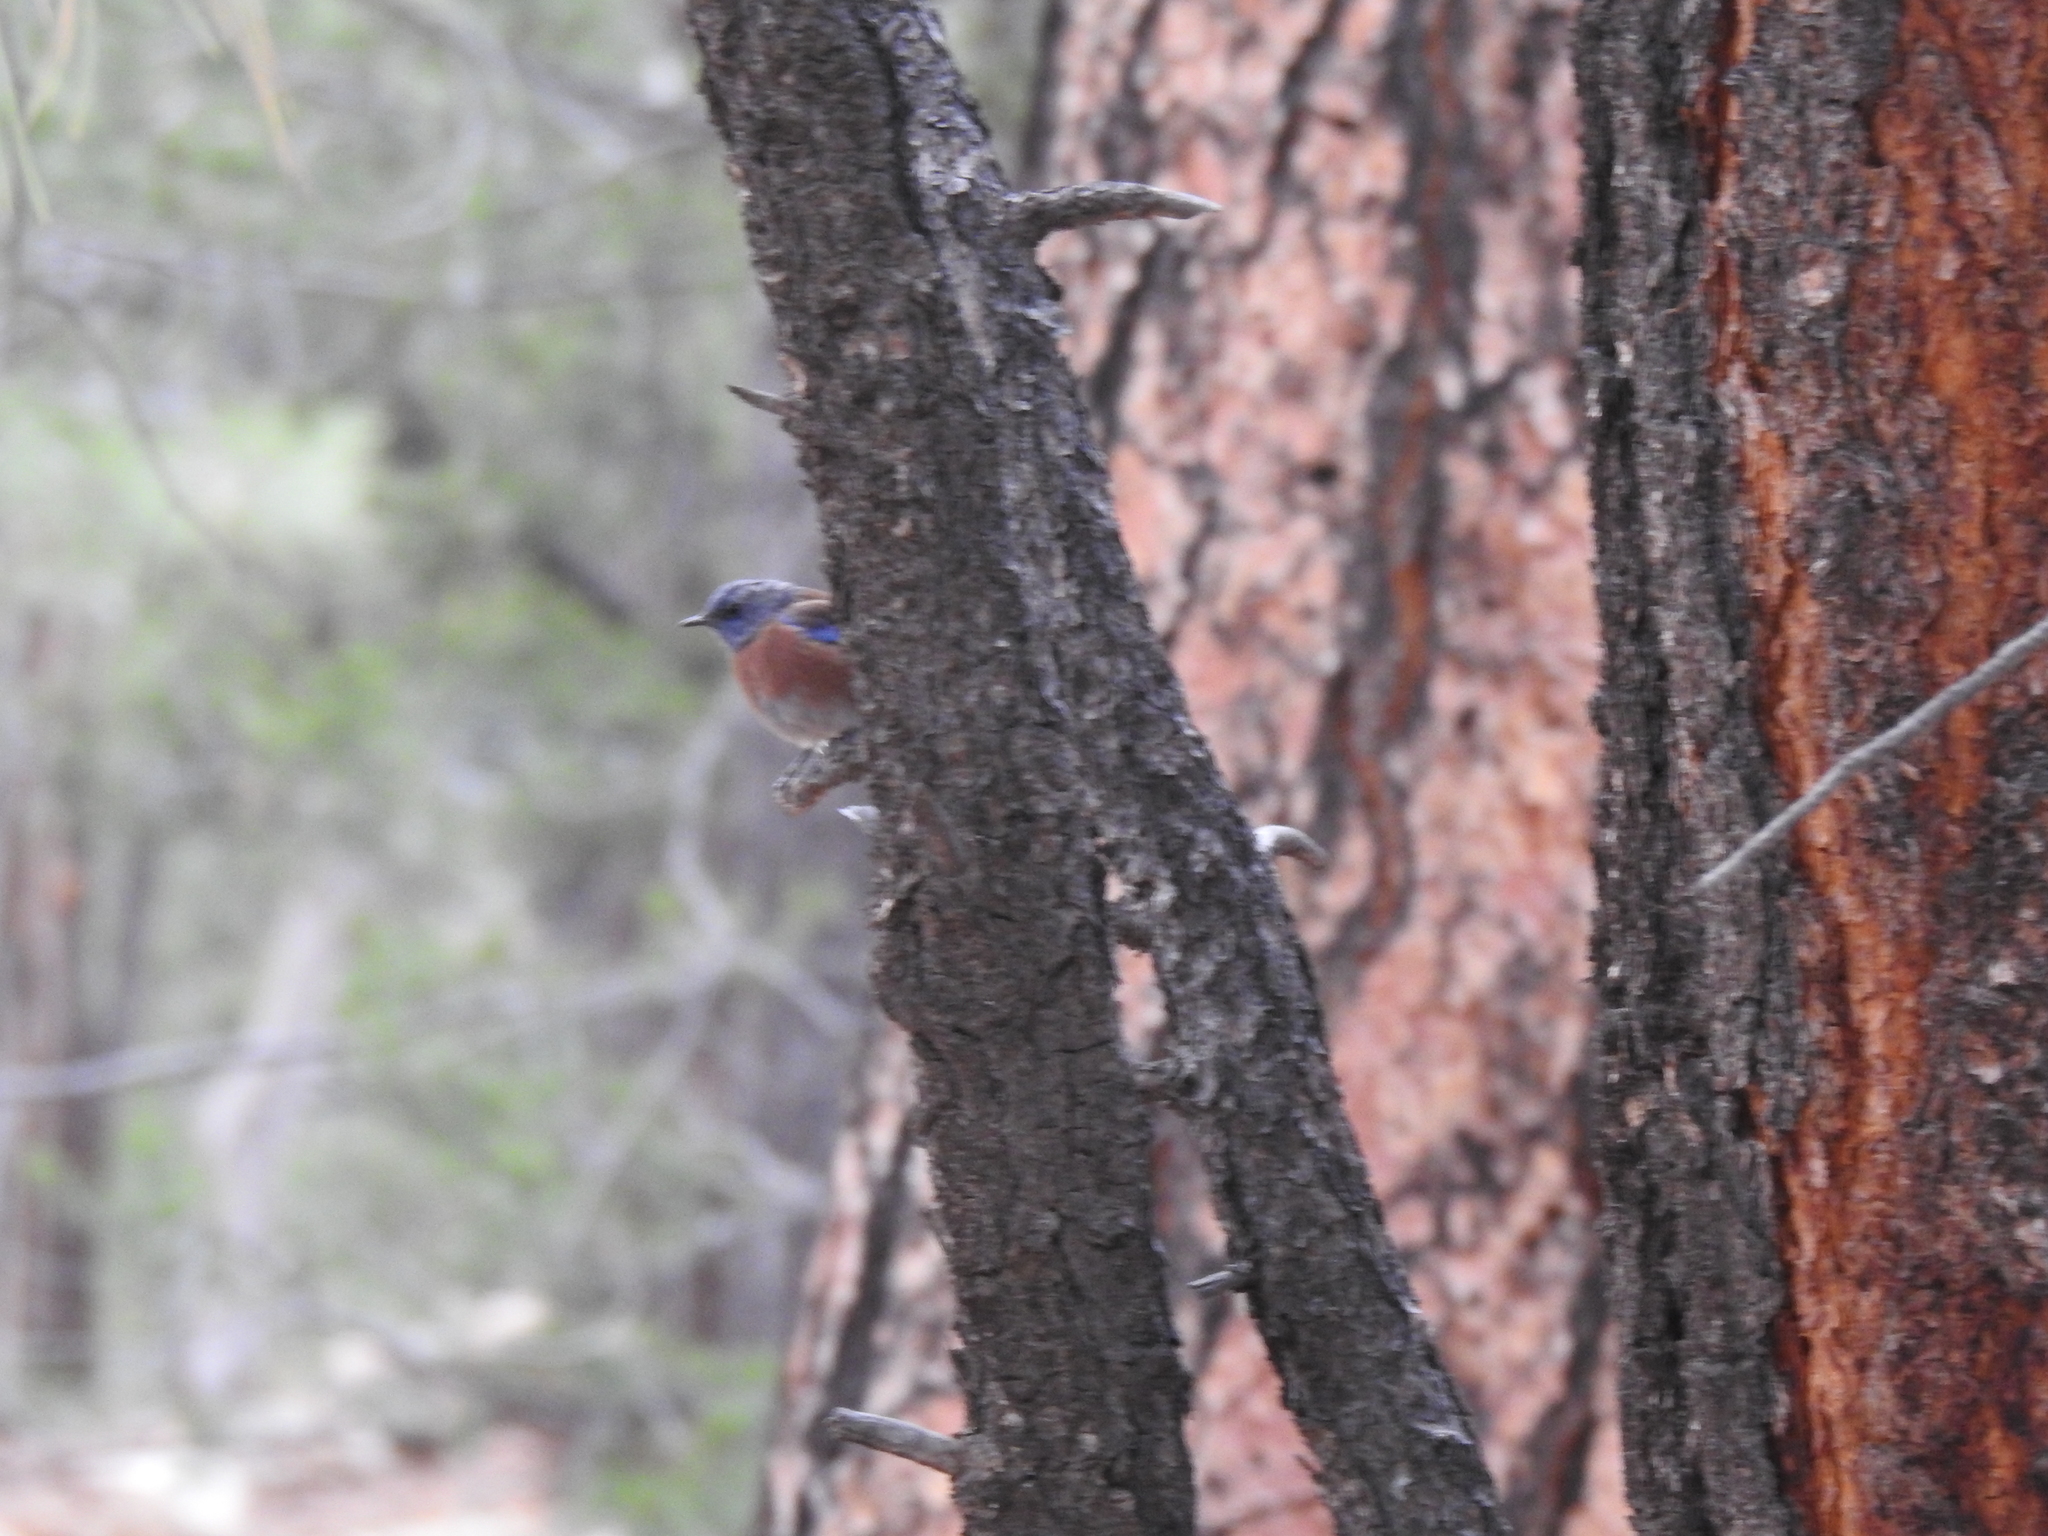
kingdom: Animalia
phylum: Chordata
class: Aves
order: Passeriformes
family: Turdidae
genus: Sialia
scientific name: Sialia mexicana
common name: Western bluebird
